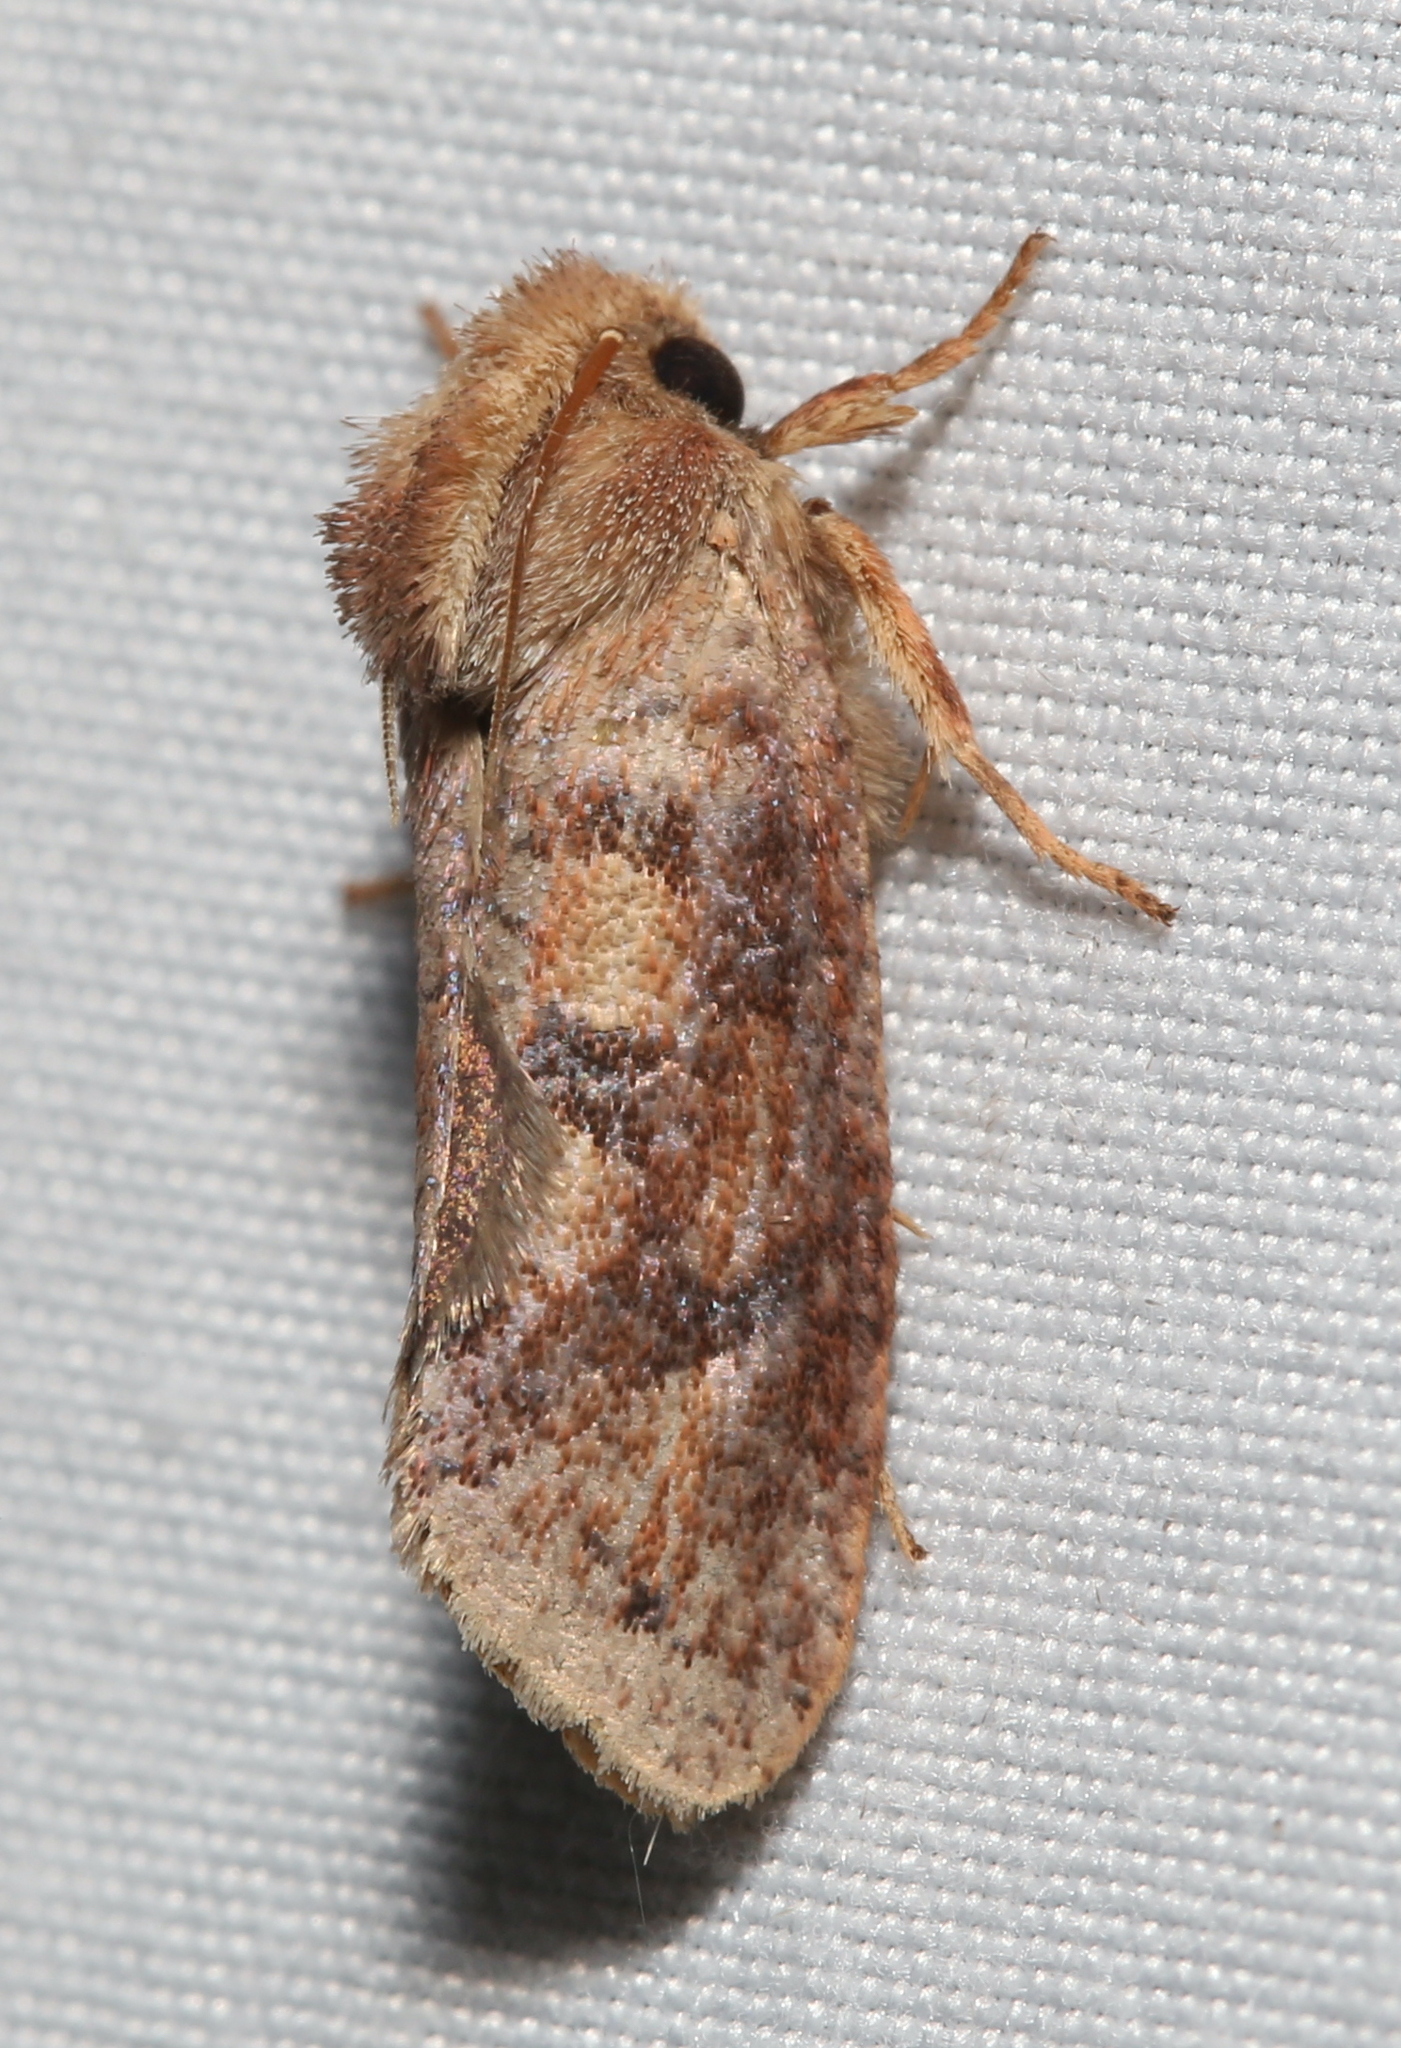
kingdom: Animalia
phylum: Arthropoda
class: Insecta
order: Lepidoptera
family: Tineidae
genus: Acrolophus
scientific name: Acrolophus plumifrontella
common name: Eastern grass tubeworm moth
